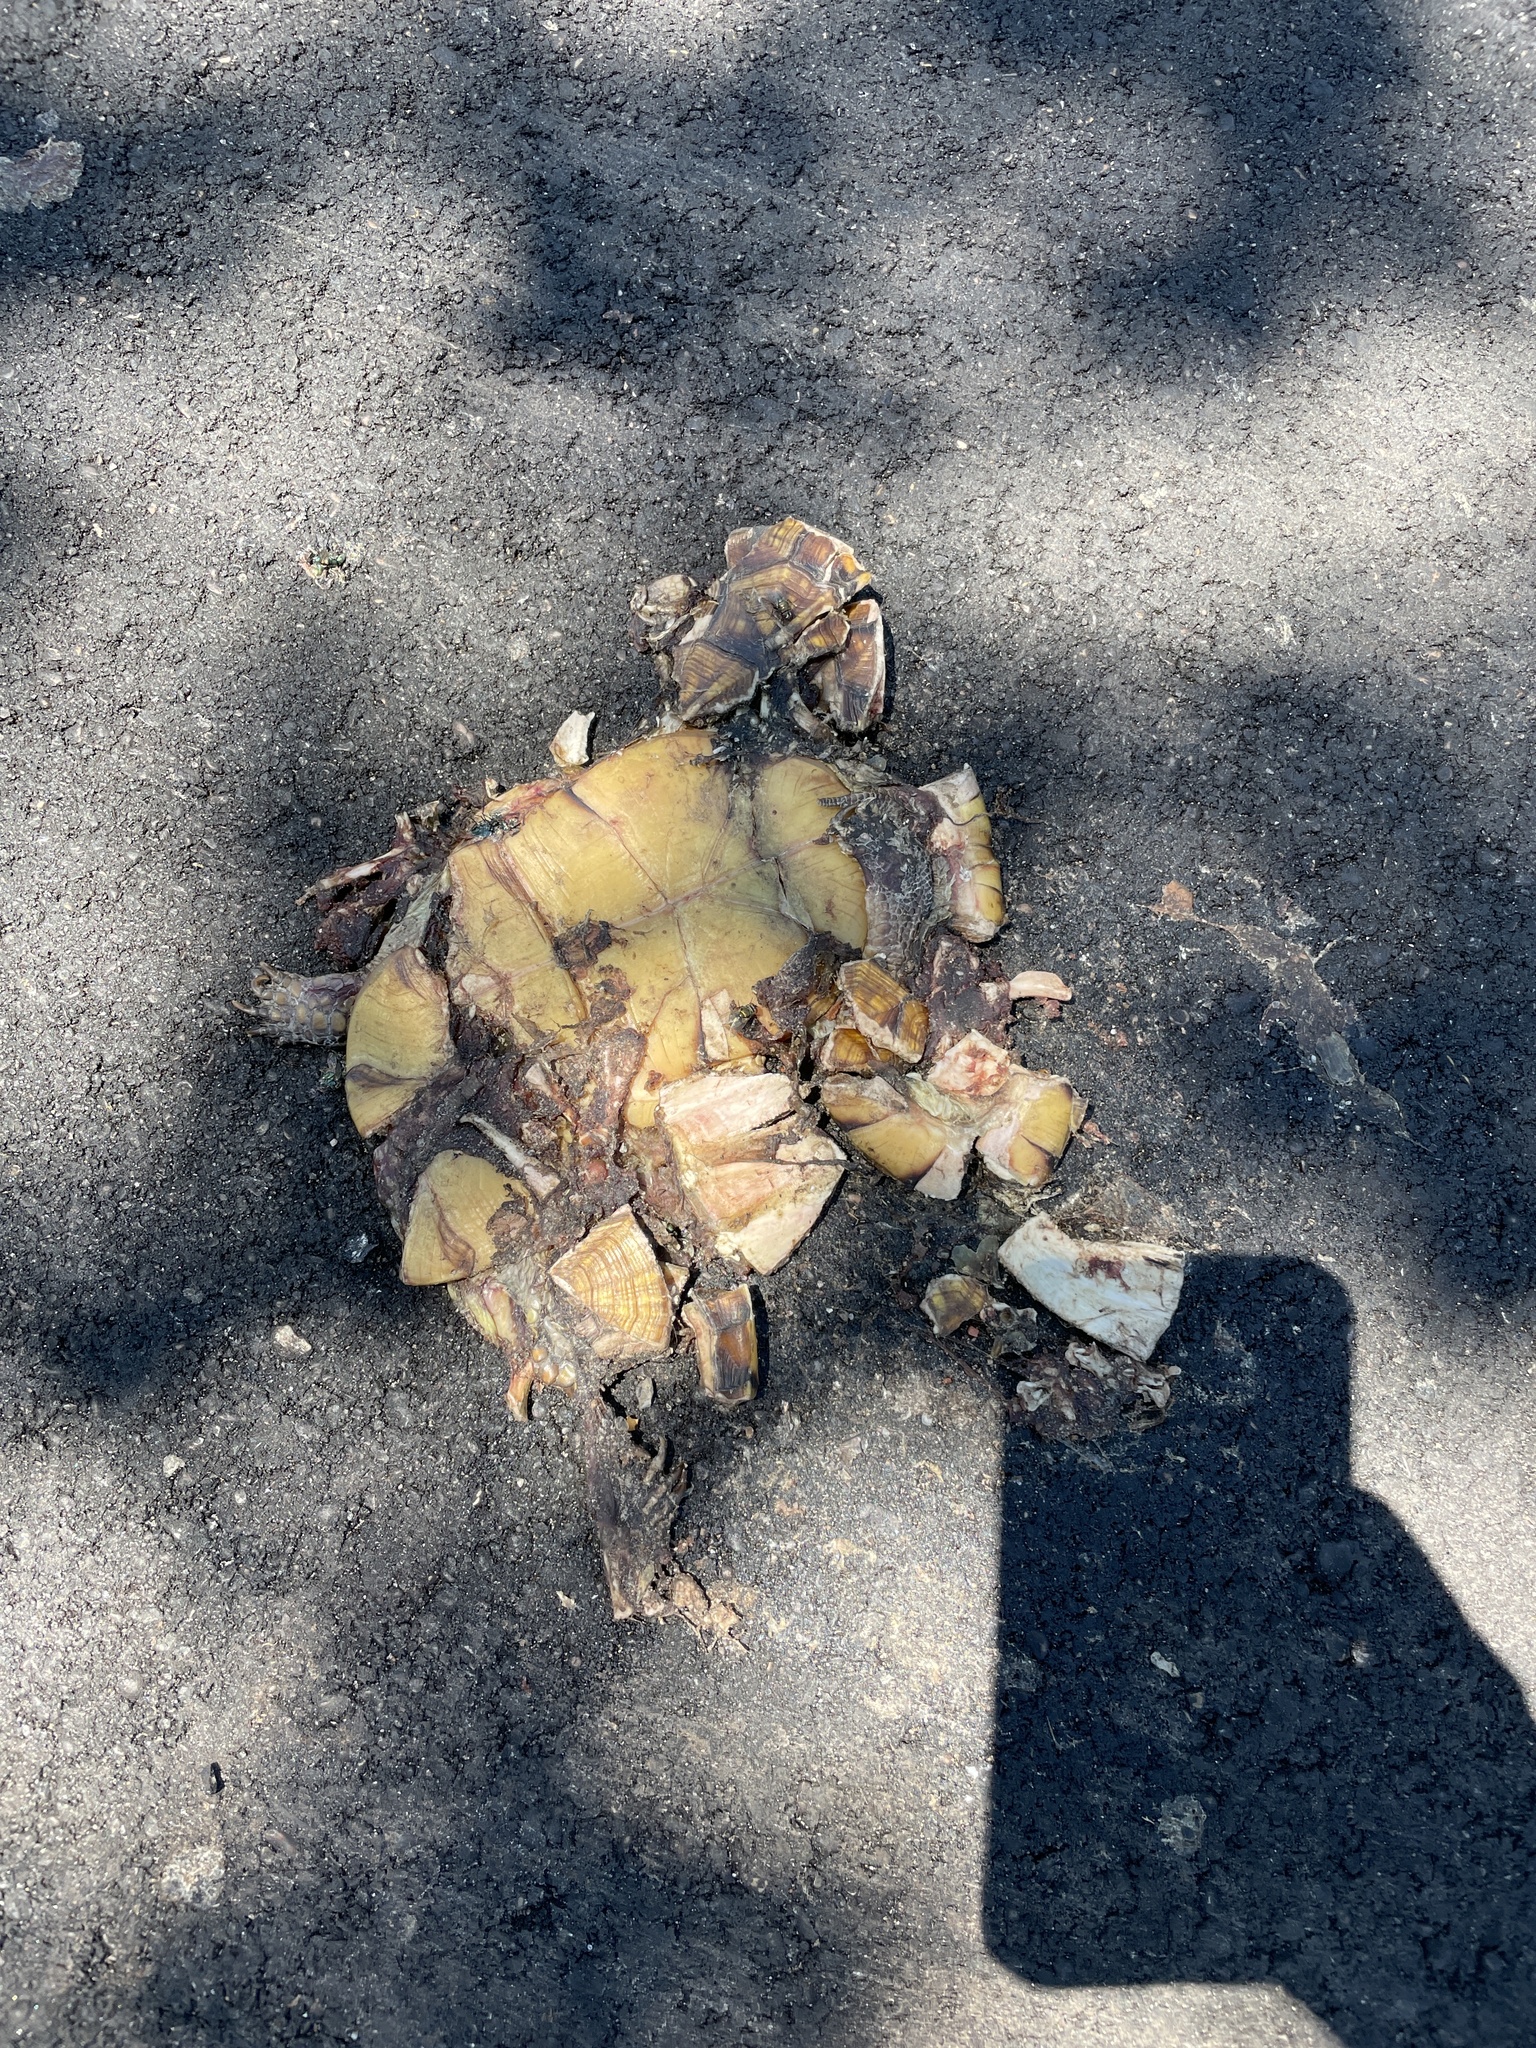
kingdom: Animalia
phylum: Chordata
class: Testudines
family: Emydidae
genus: Terrapene
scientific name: Terrapene carolina
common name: Common box turtle
